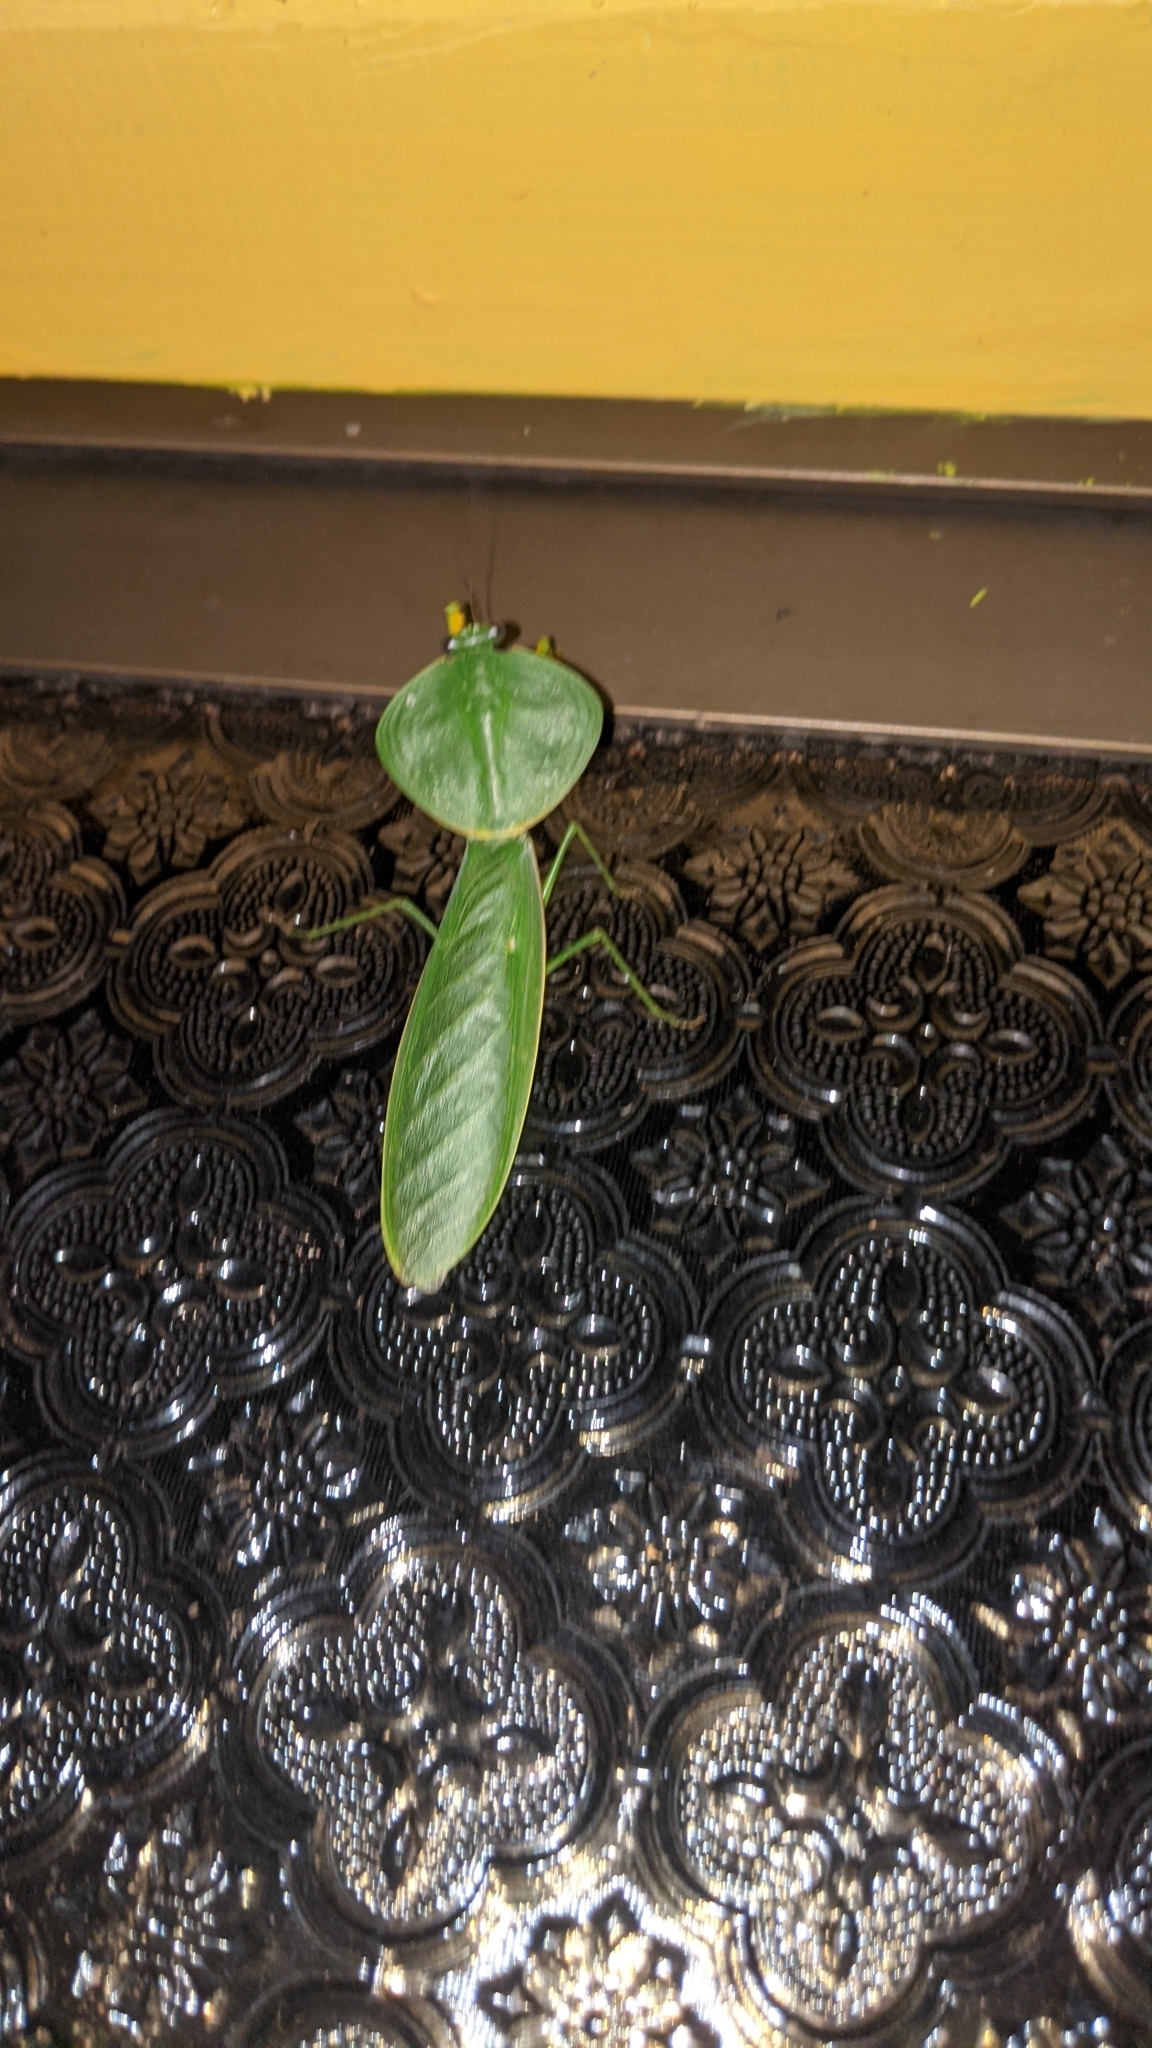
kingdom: Animalia
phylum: Arthropoda
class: Insecta
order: Mantodea
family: Mantidae
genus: Choeradodis
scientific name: Choeradodis rhombicollis
